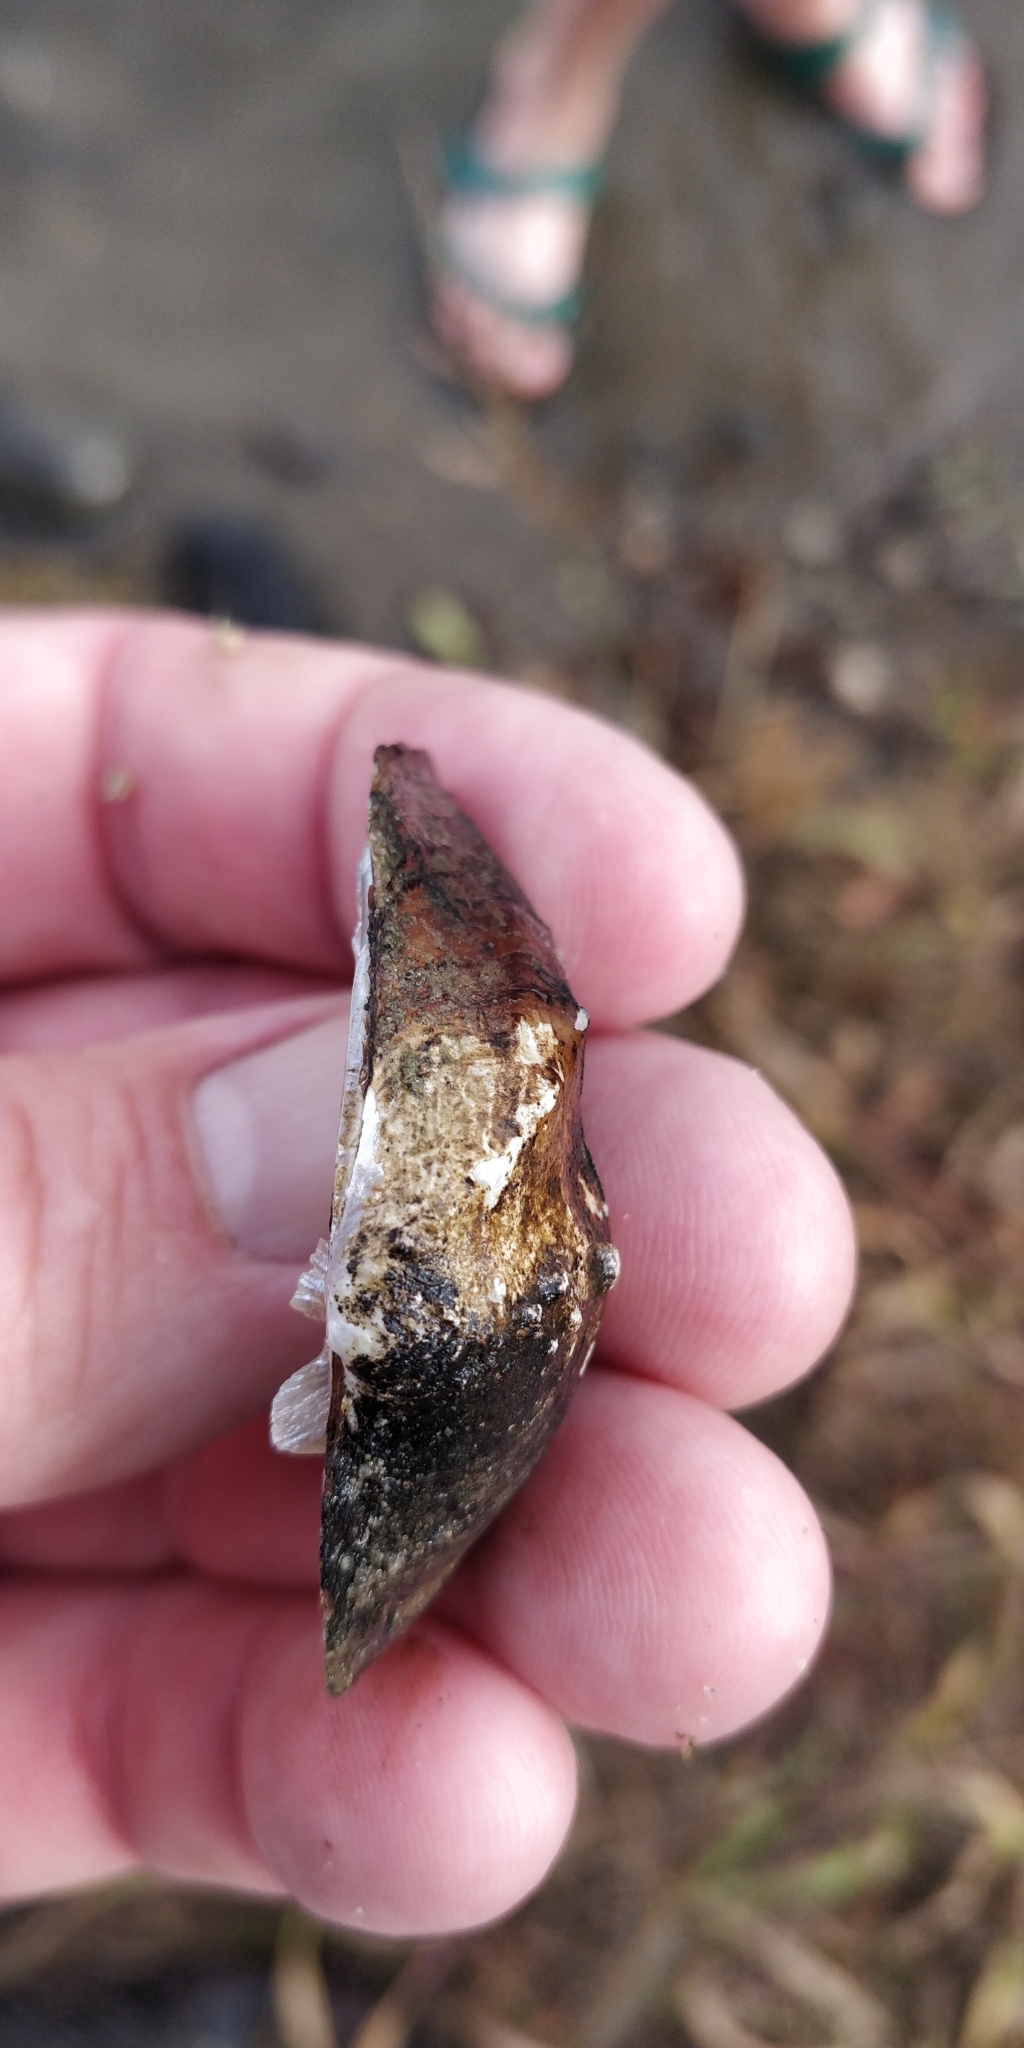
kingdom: Animalia
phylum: Mollusca
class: Bivalvia
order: Unionida
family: Unionidae
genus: Quadrula
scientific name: Quadrula quadrula
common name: Mapleleaf
